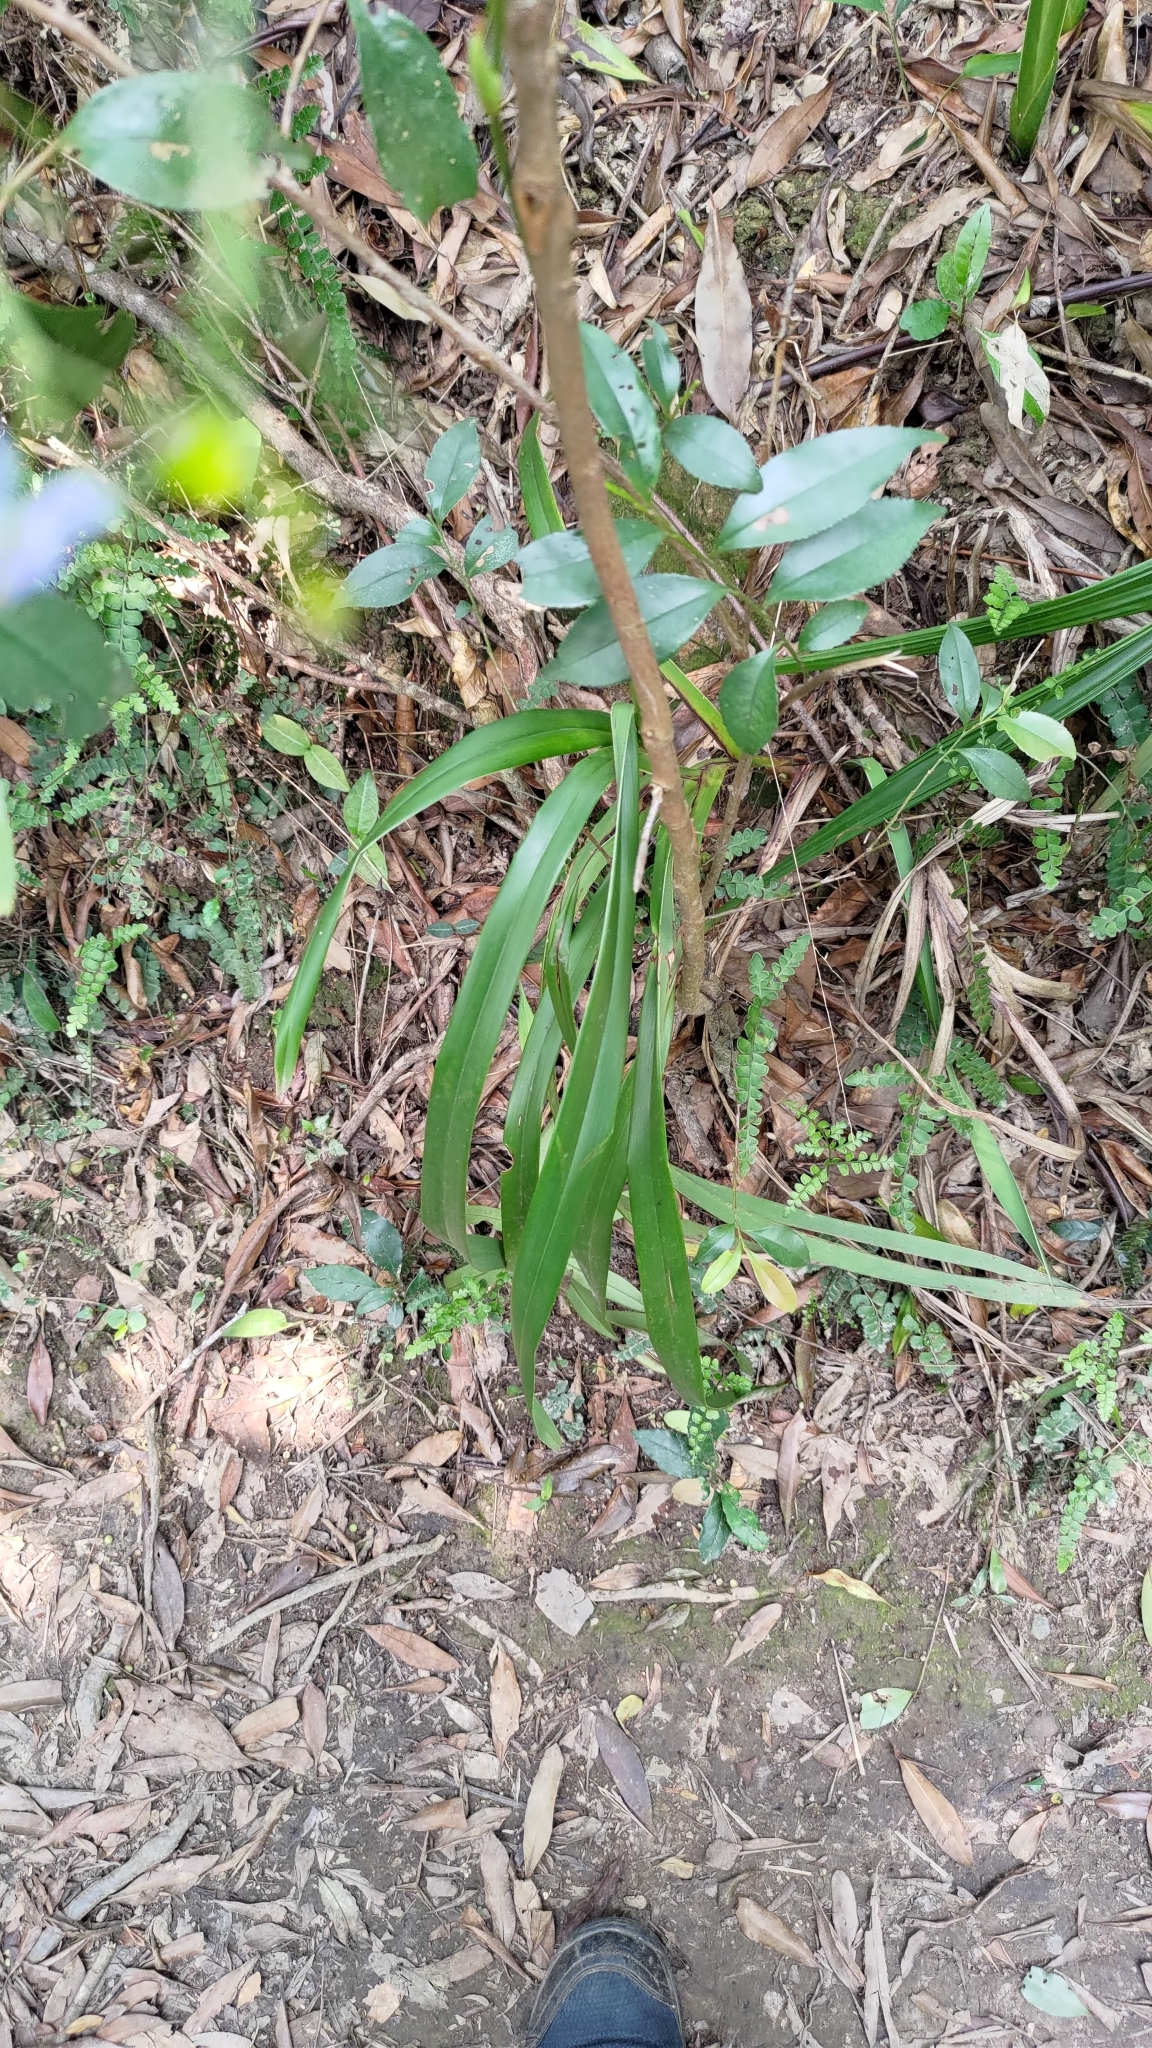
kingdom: Plantae
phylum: Tracheophyta
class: Liliopsida
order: Asparagales
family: Asphodelaceae
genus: Dianella
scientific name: Dianella ensifolia
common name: New zealand lilyplant
